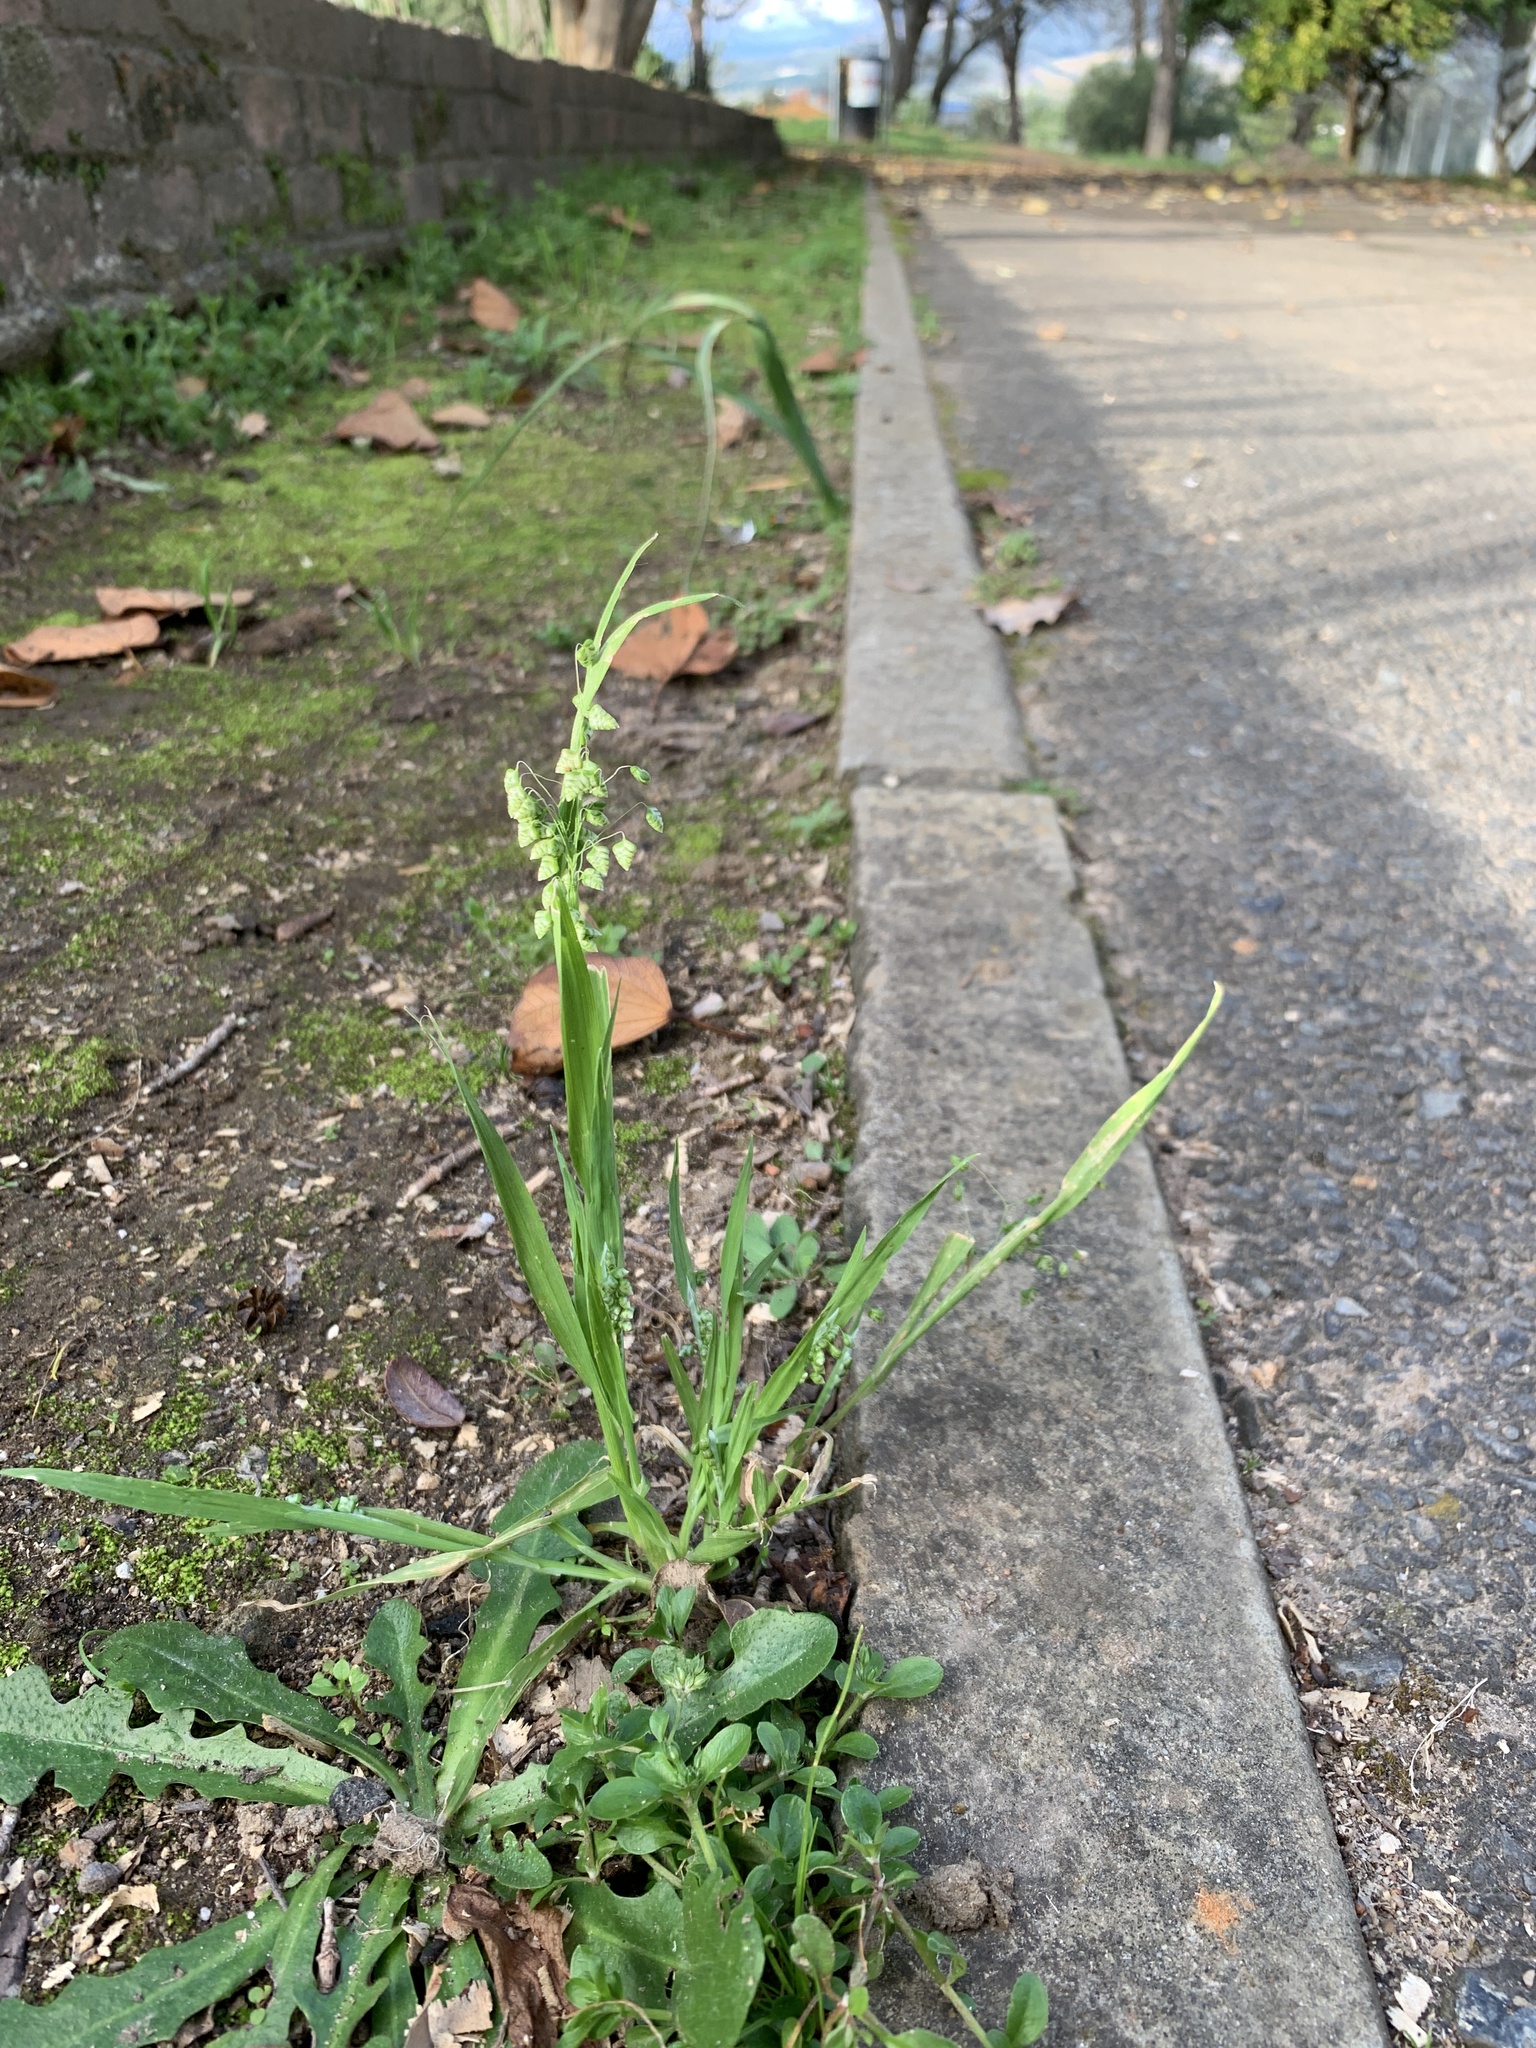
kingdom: Plantae
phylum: Tracheophyta
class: Liliopsida
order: Poales
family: Poaceae
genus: Briza
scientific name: Briza minor
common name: Lesser quaking-grass
